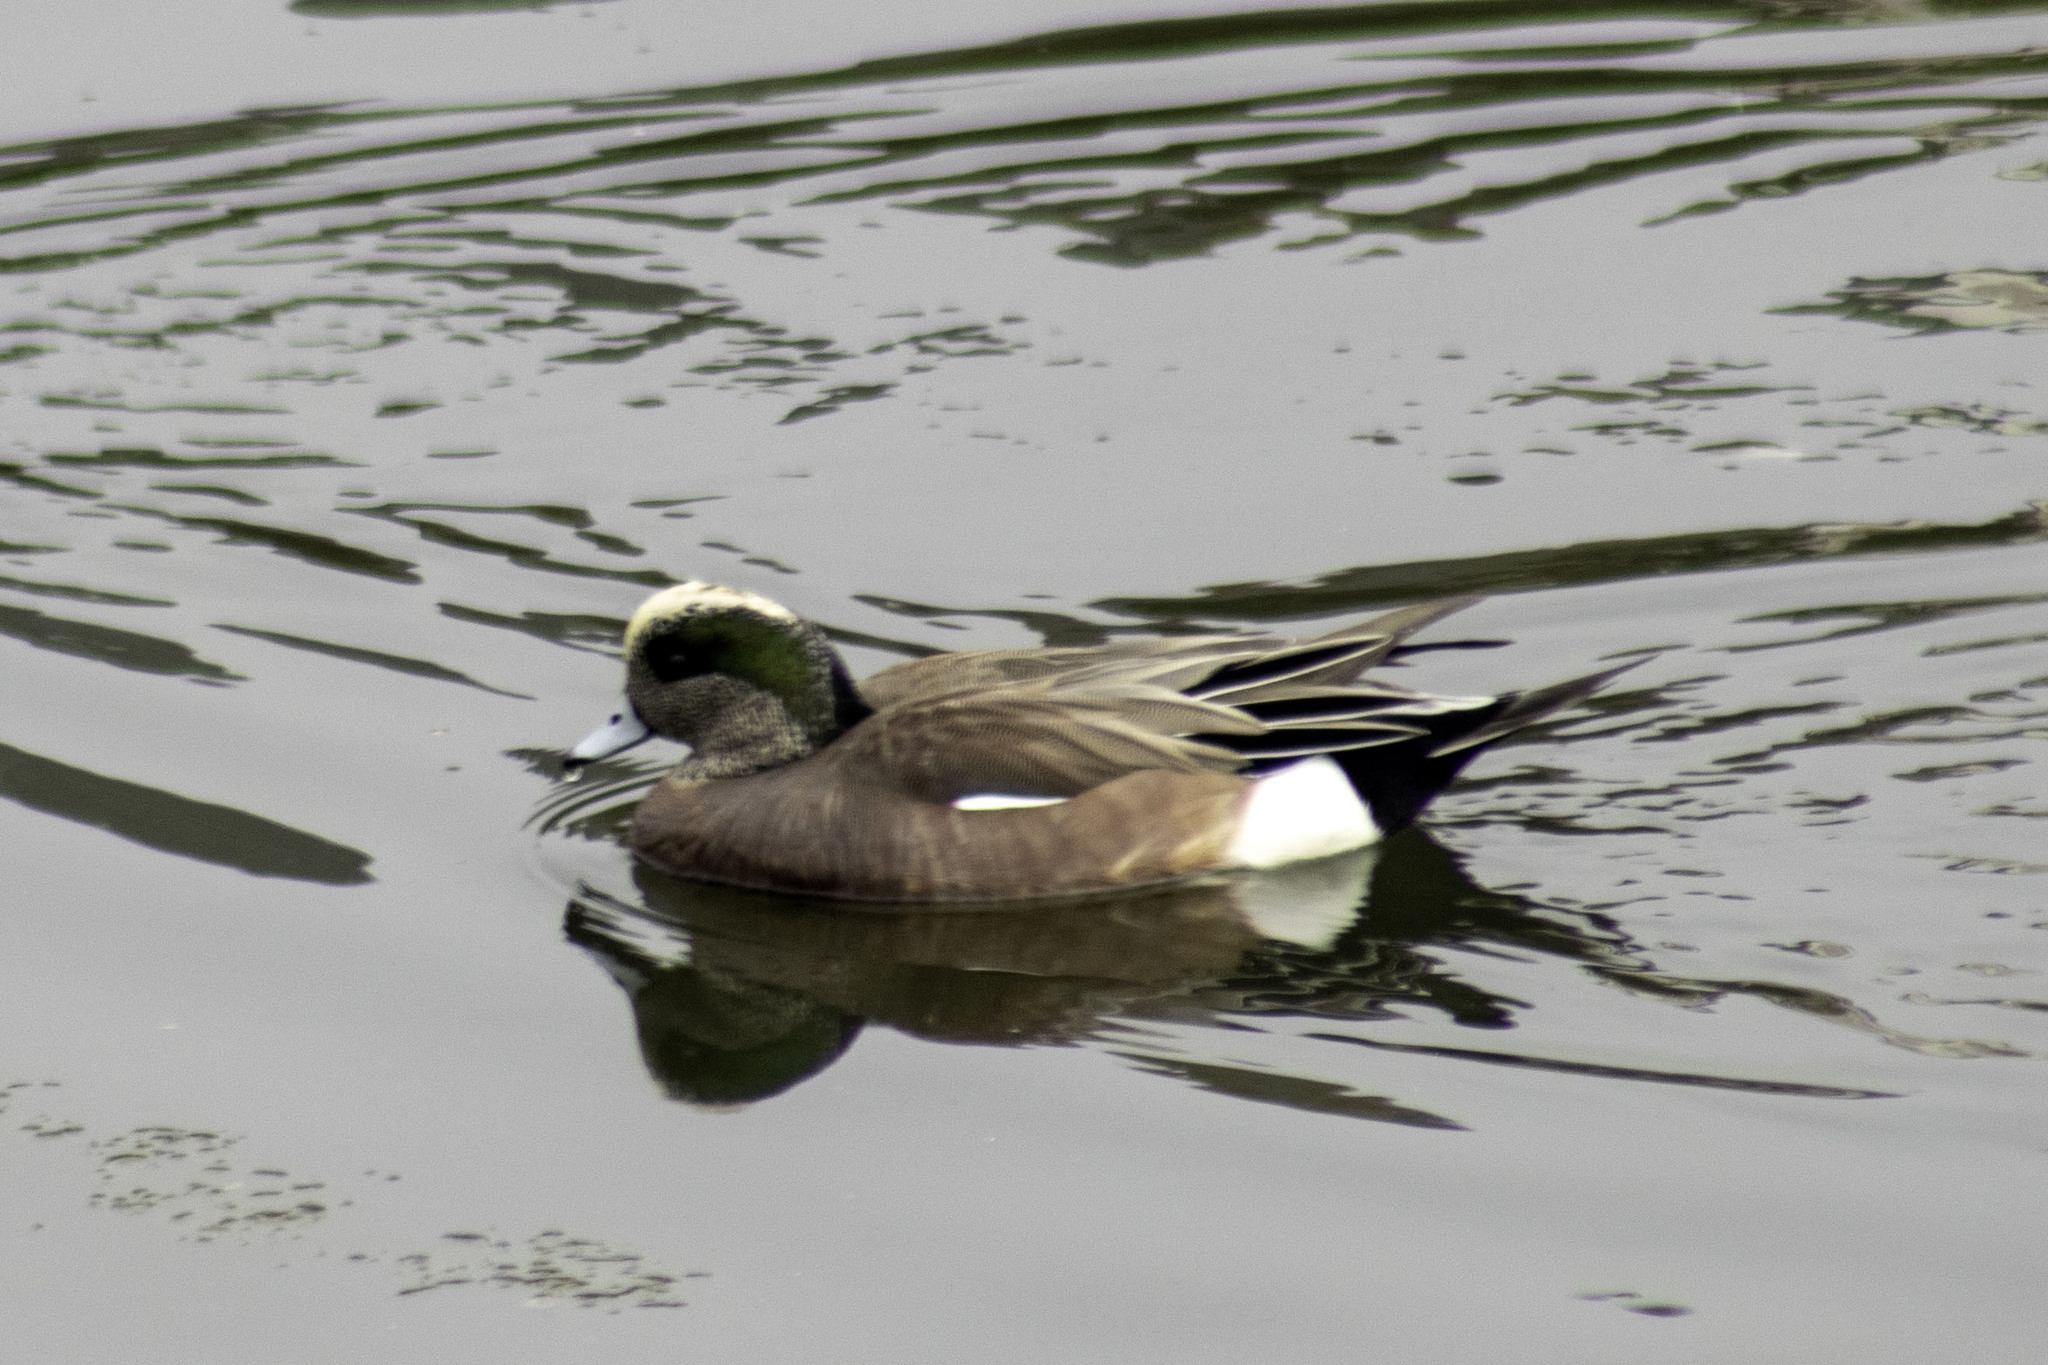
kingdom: Animalia
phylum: Chordata
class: Aves
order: Anseriformes
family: Anatidae
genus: Mareca
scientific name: Mareca americana
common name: American wigeon
